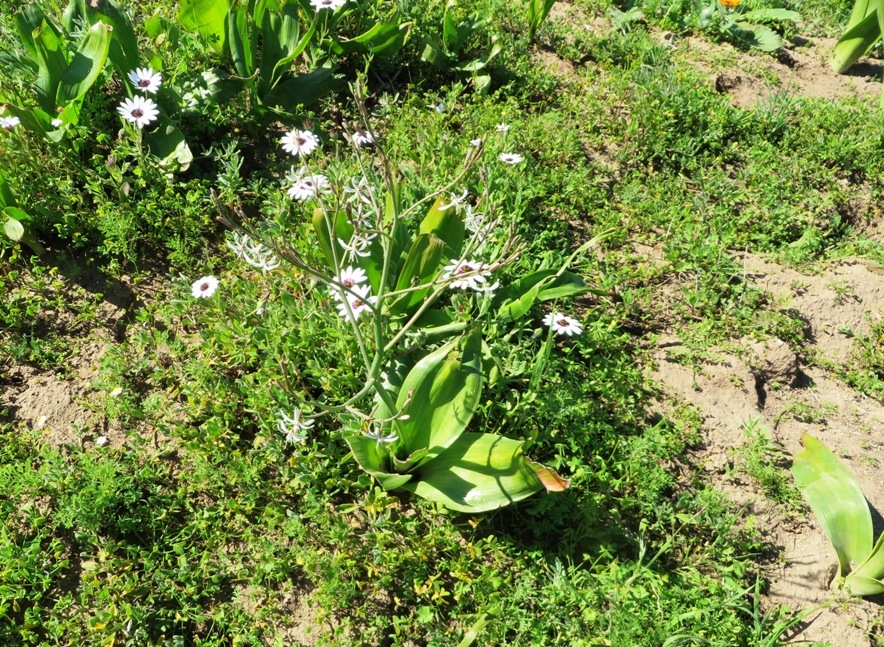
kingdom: Plantae
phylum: Tracheophyta
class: Liliopsida
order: Asparagales
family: Asphodelaceae
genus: Trachyandra
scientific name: Trachyandra muricata
